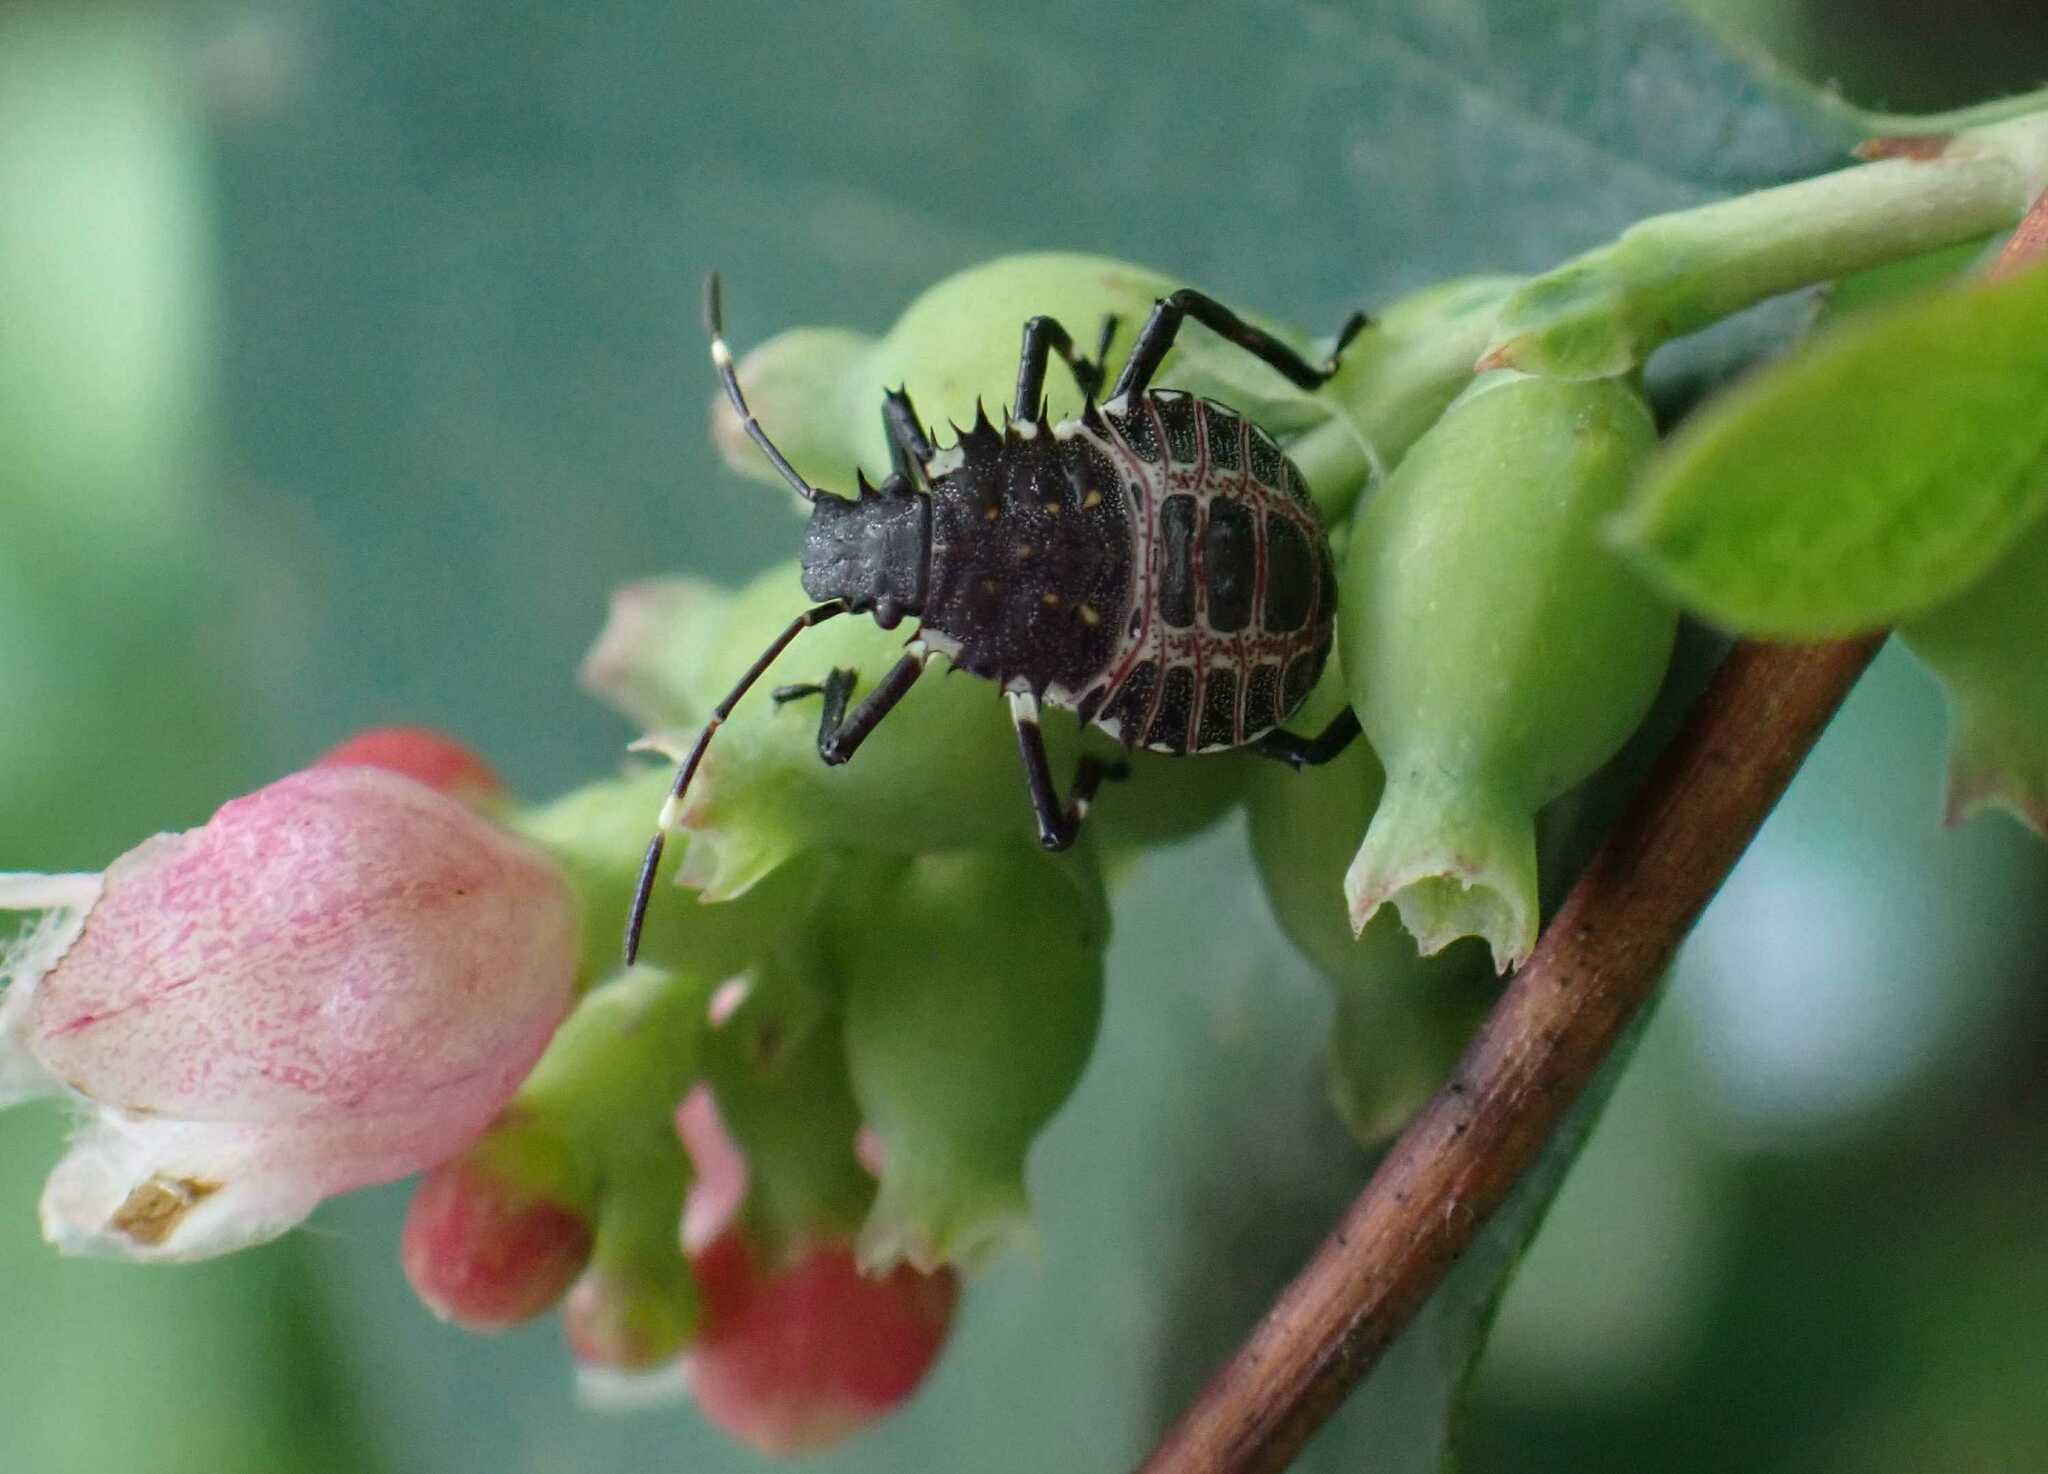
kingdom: Animalia
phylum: Arthropoda
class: Insecta
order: Hemiptera
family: Pentatomidae
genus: Halyomorpha
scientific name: Halyomorpha halys
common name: Brown marmorated stink bug
